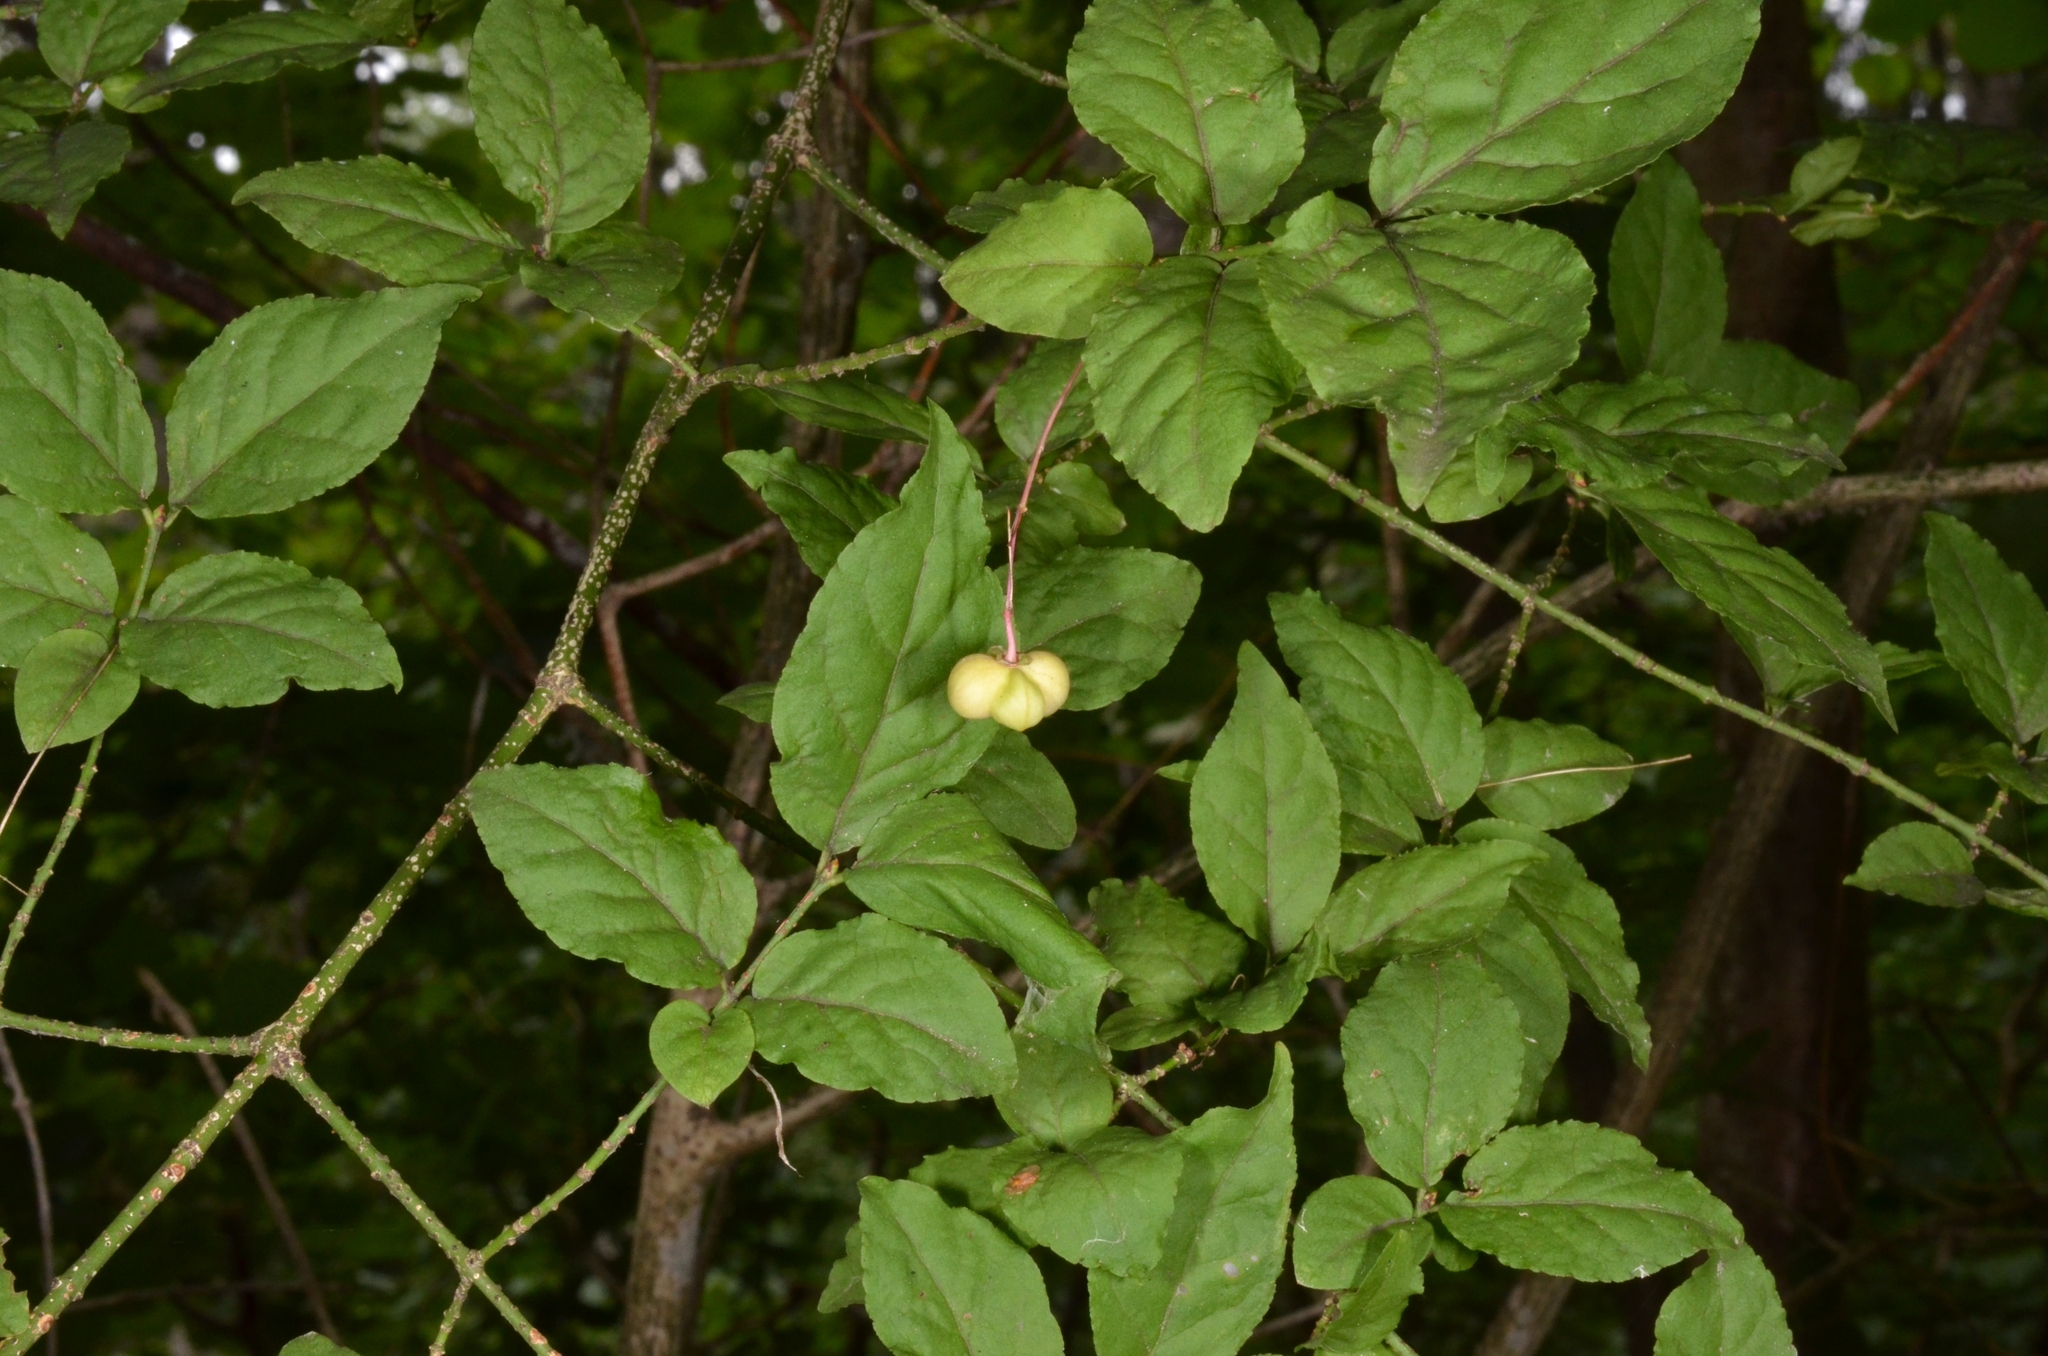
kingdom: Plantae
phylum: Tracheophyta
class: Magnoliopsida
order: Celastrales
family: Celastraceae
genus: Euonymus
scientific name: Euonymus verrucosus
